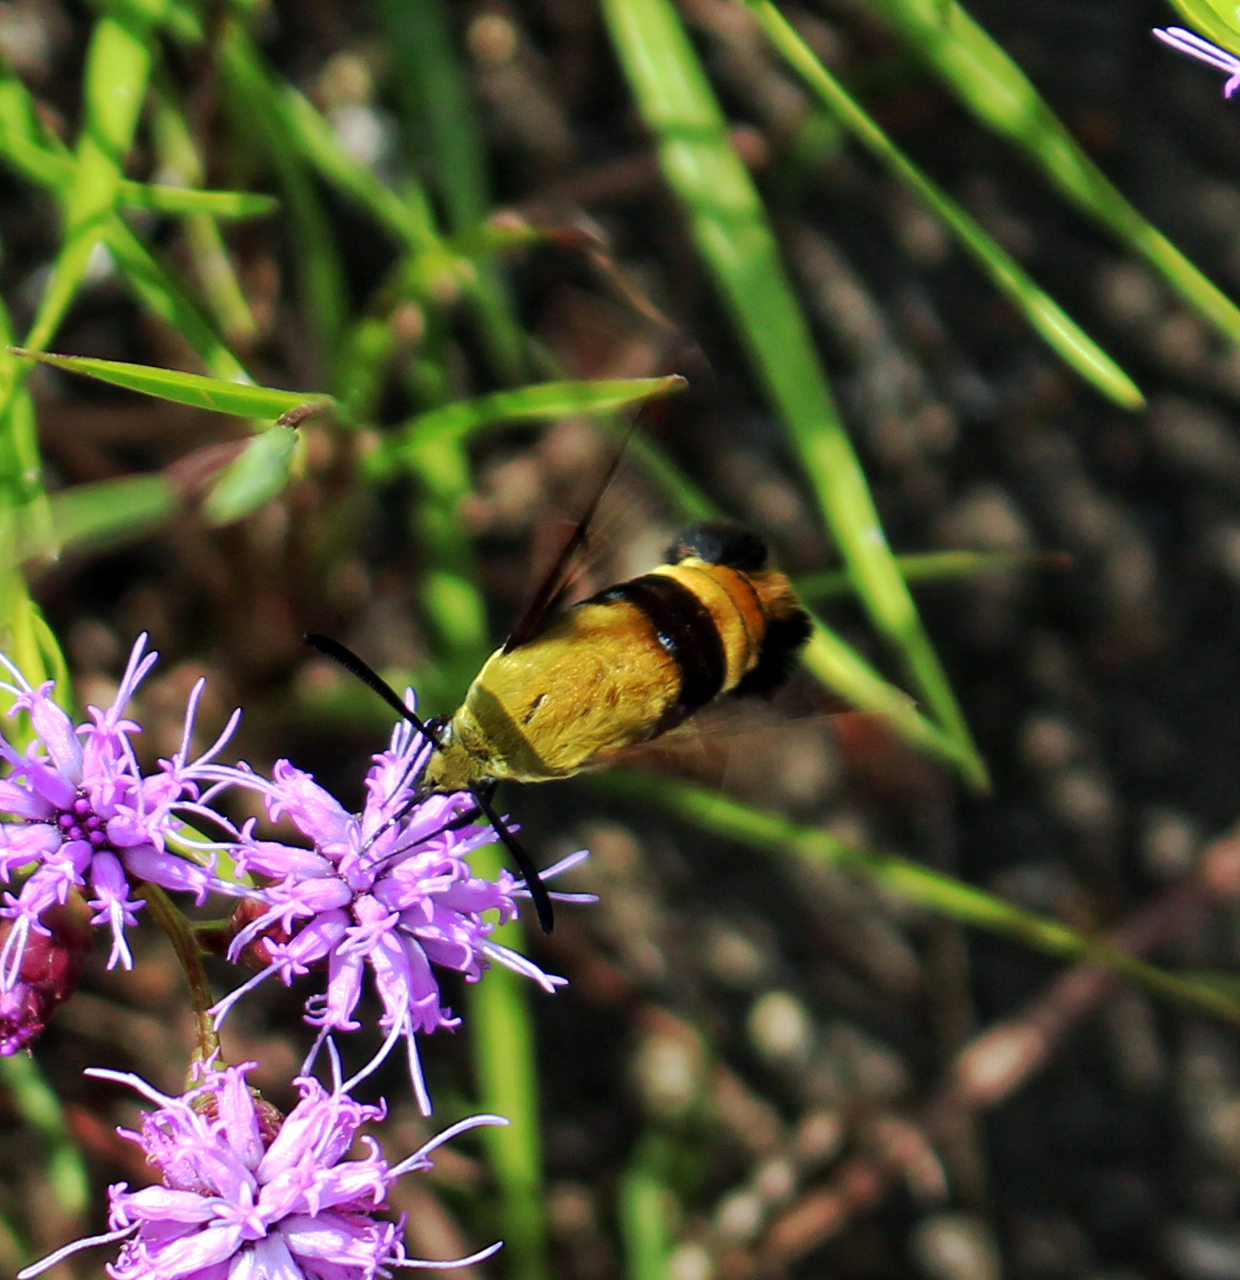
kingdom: Animalia
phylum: Arthropoda
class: Insecta
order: Lepidoptera
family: Sphingidae
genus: Hemaris
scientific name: Hemaris diffinis
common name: Bumblebee moth
